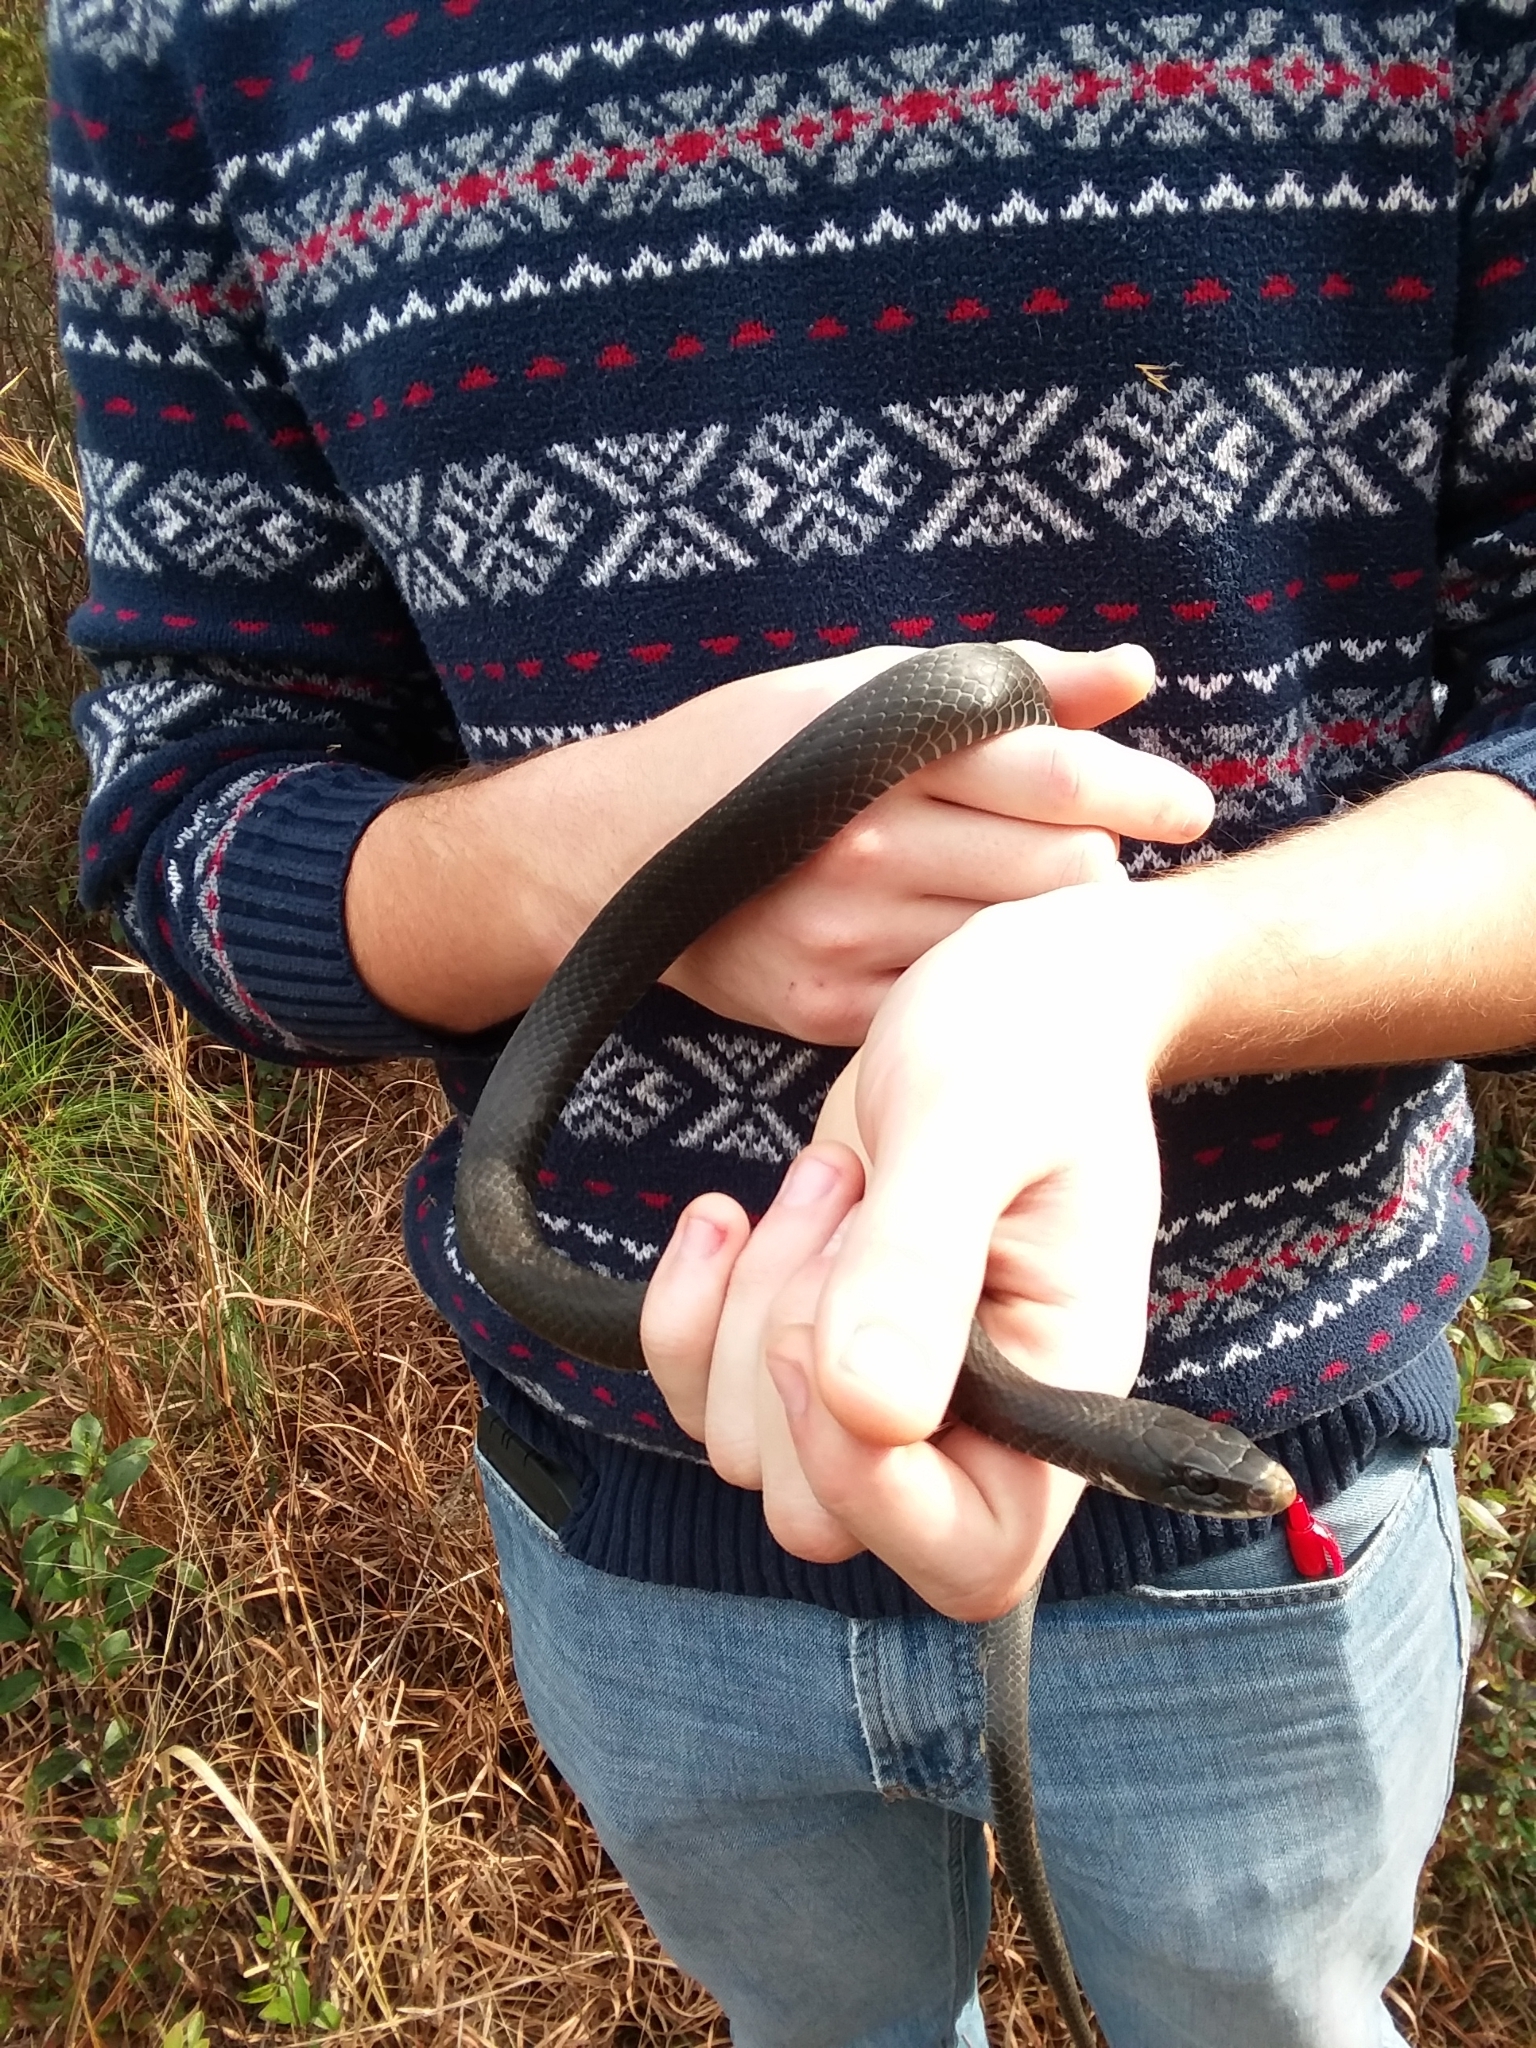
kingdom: Animalia
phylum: Chordata
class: Squamata
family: Colubridae
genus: Coluber
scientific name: Coluber constrictor
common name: Eastern racer
